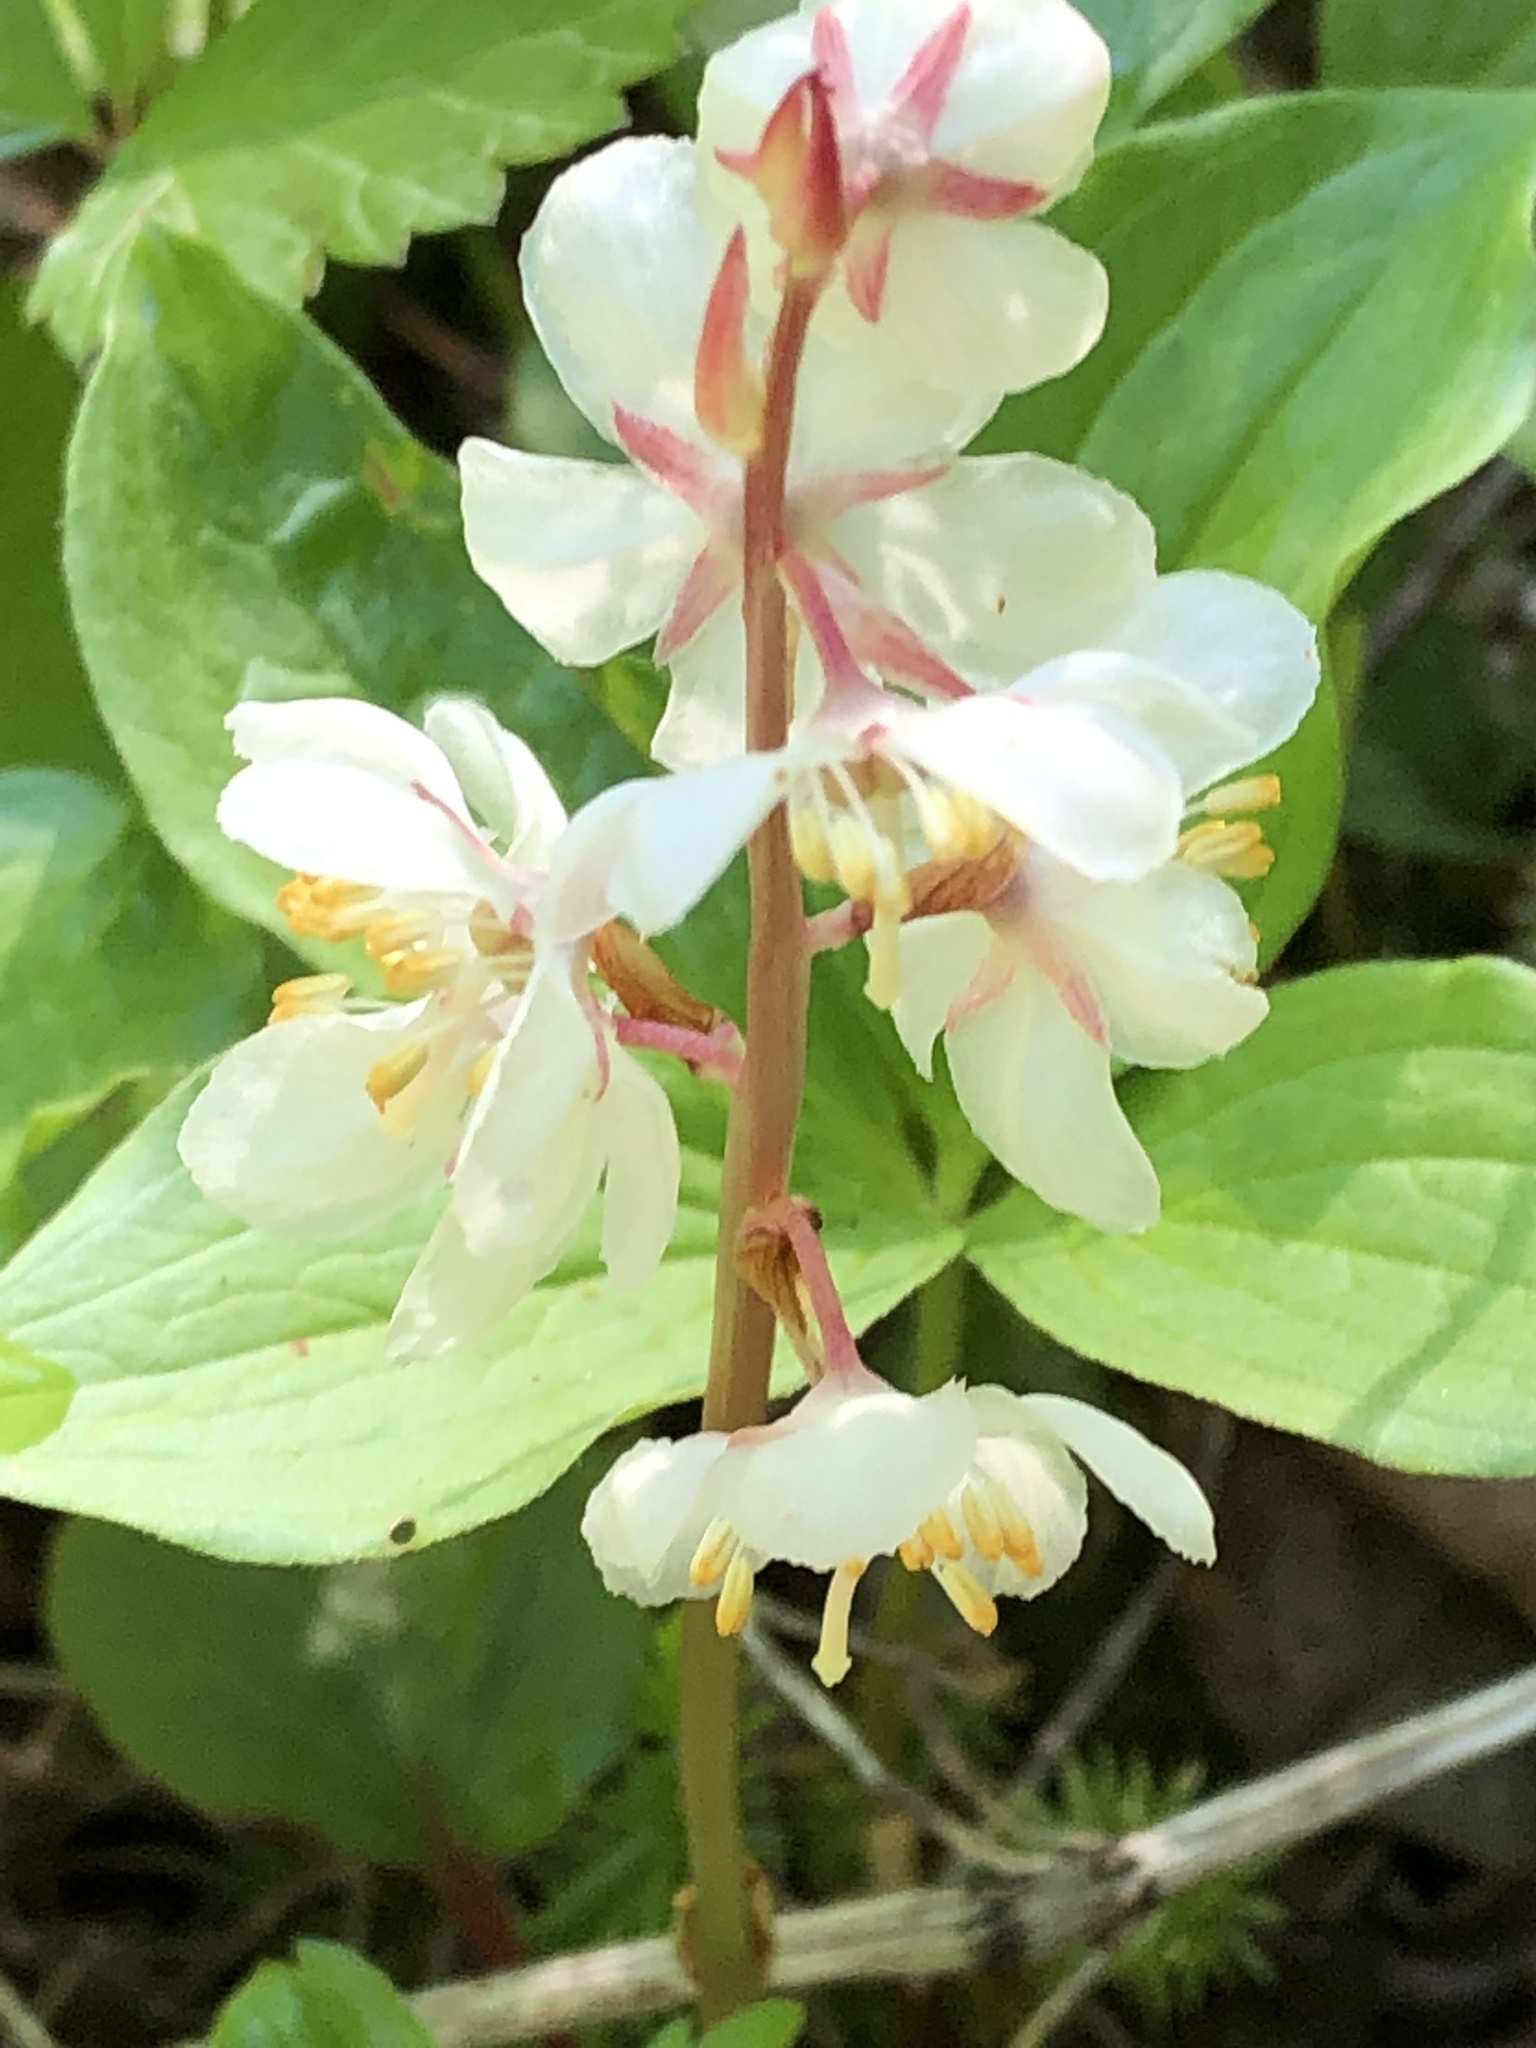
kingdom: Plantae
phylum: Tracheophyta
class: Magnoliopsida
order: Ericales
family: Ericaceae
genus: Pyrola
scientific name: Pyrola grandiflora
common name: Arctic pyrola
